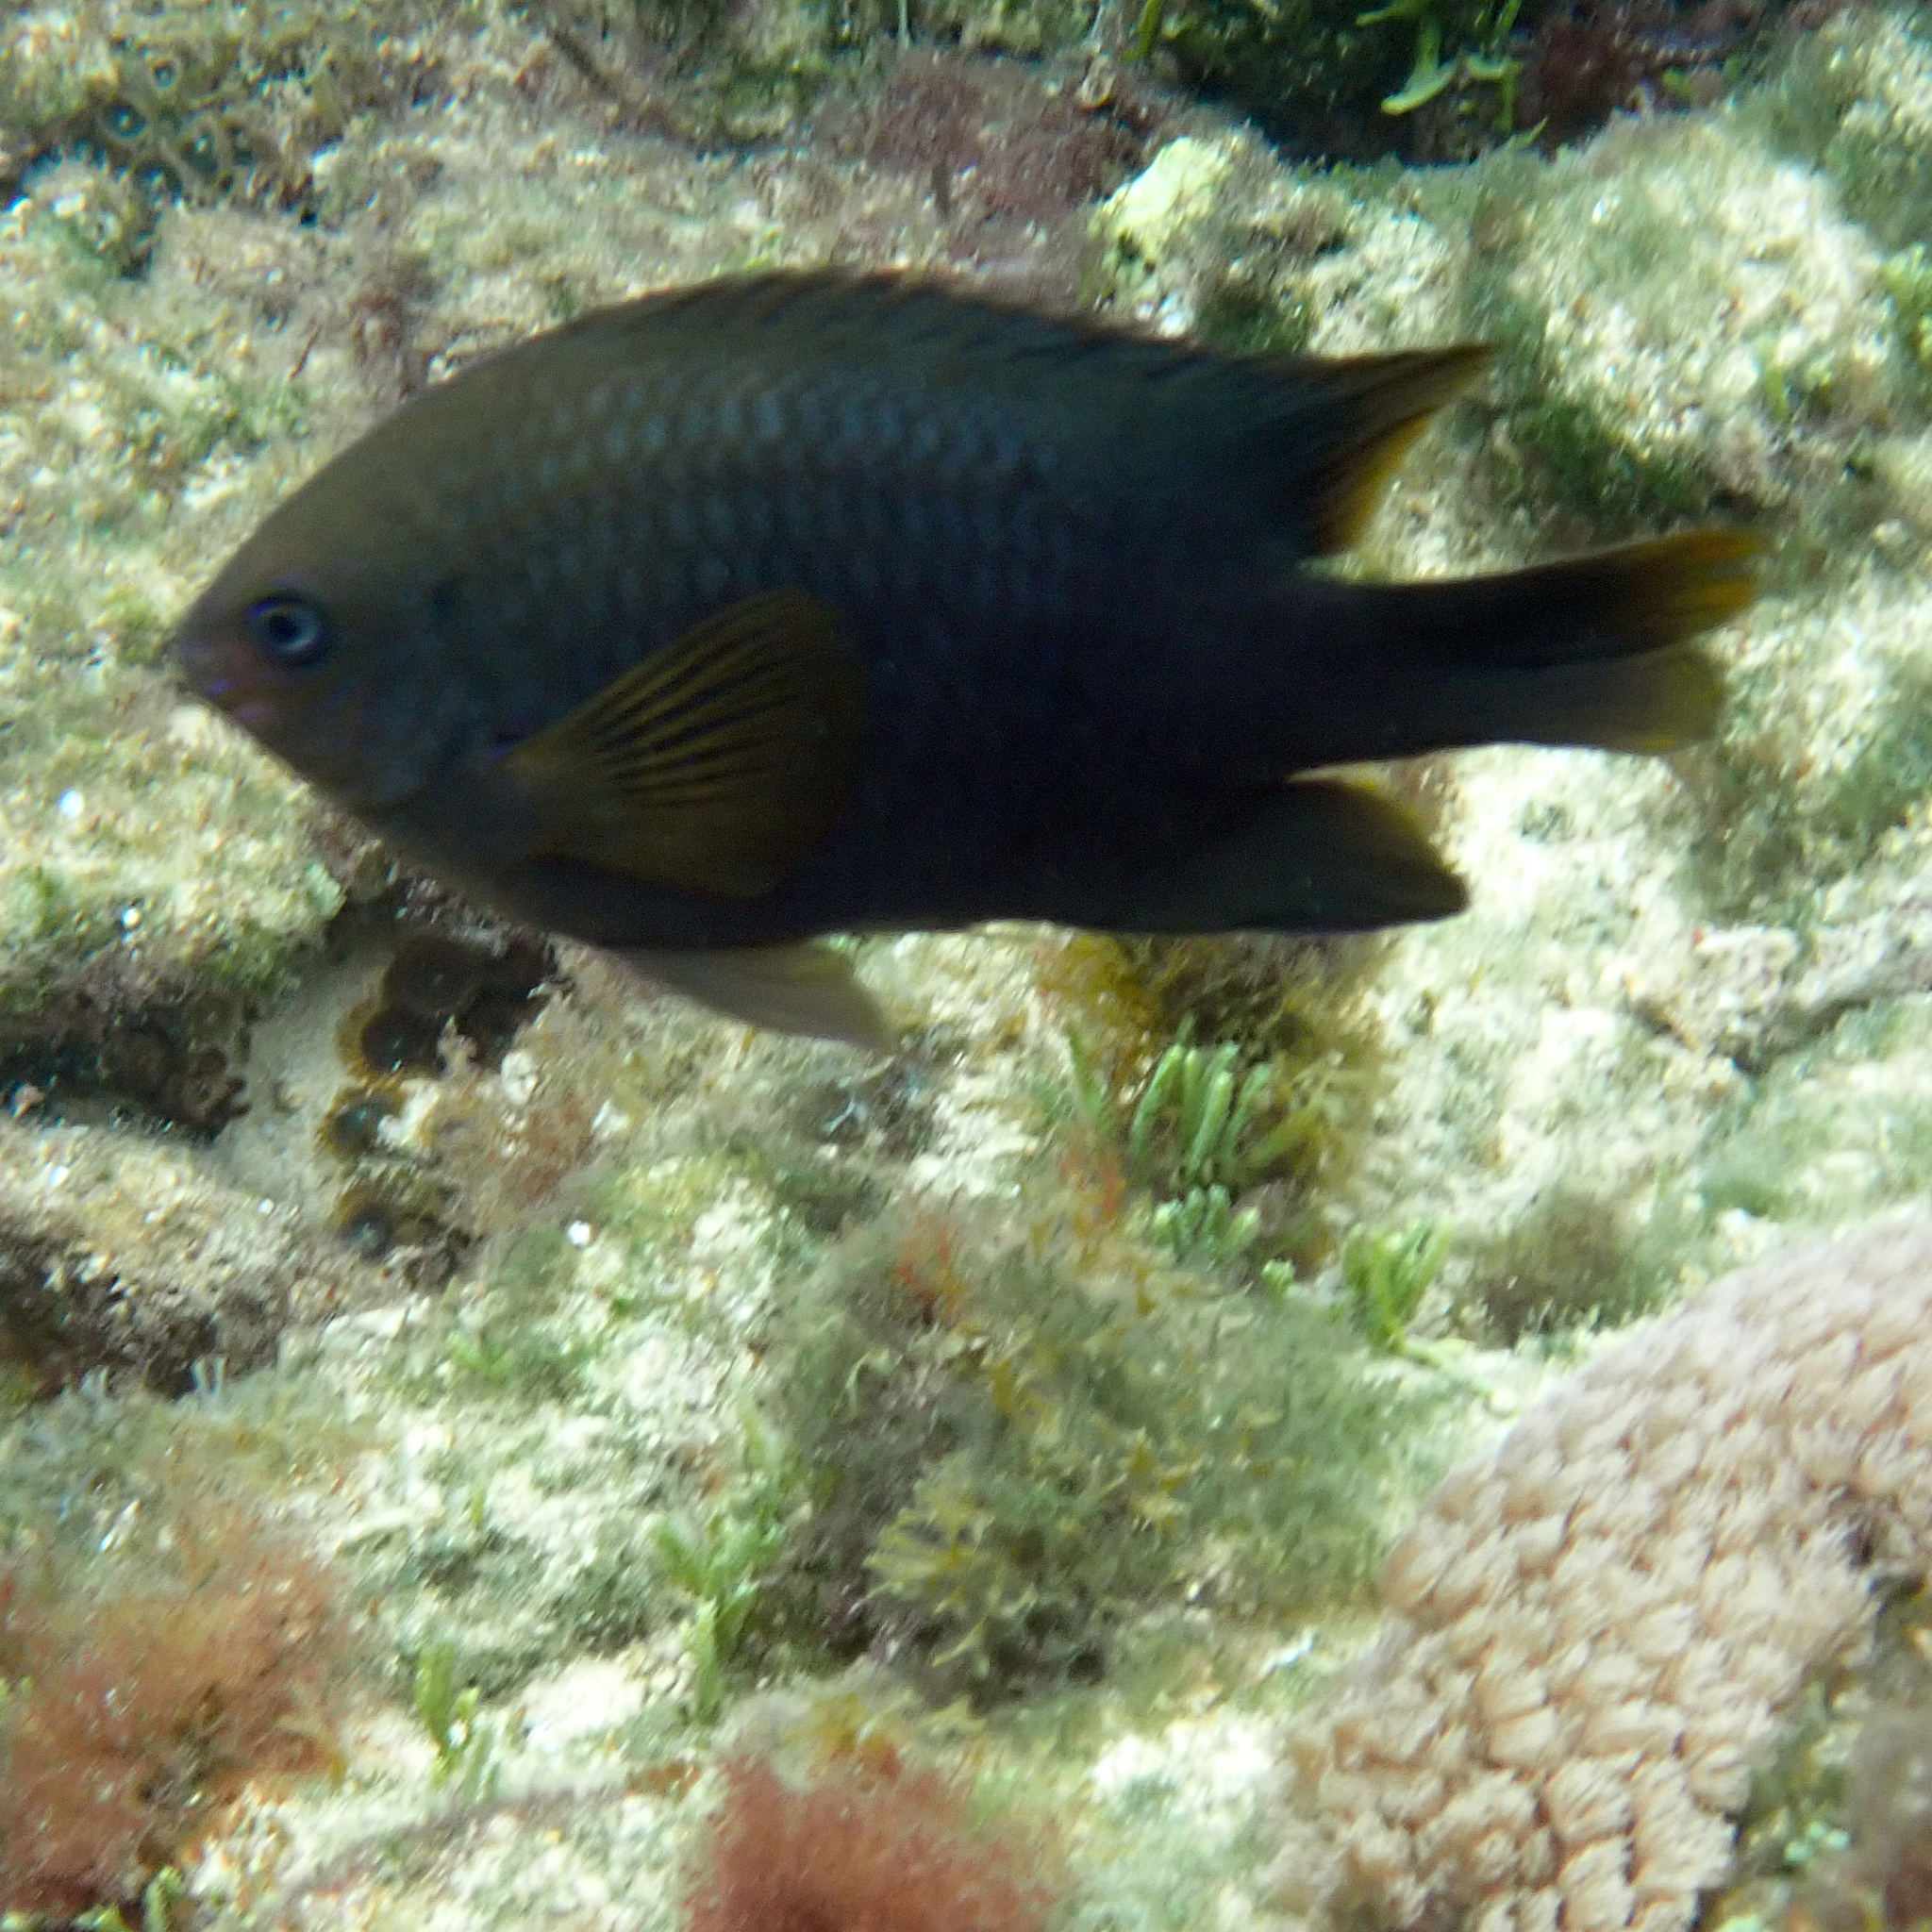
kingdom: Animalia
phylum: Chordata
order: Perciformes
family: Pomacentridae
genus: Neoglyphidodon
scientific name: Neoglyphidodon polyacanthus
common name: Multi-spined damsel
